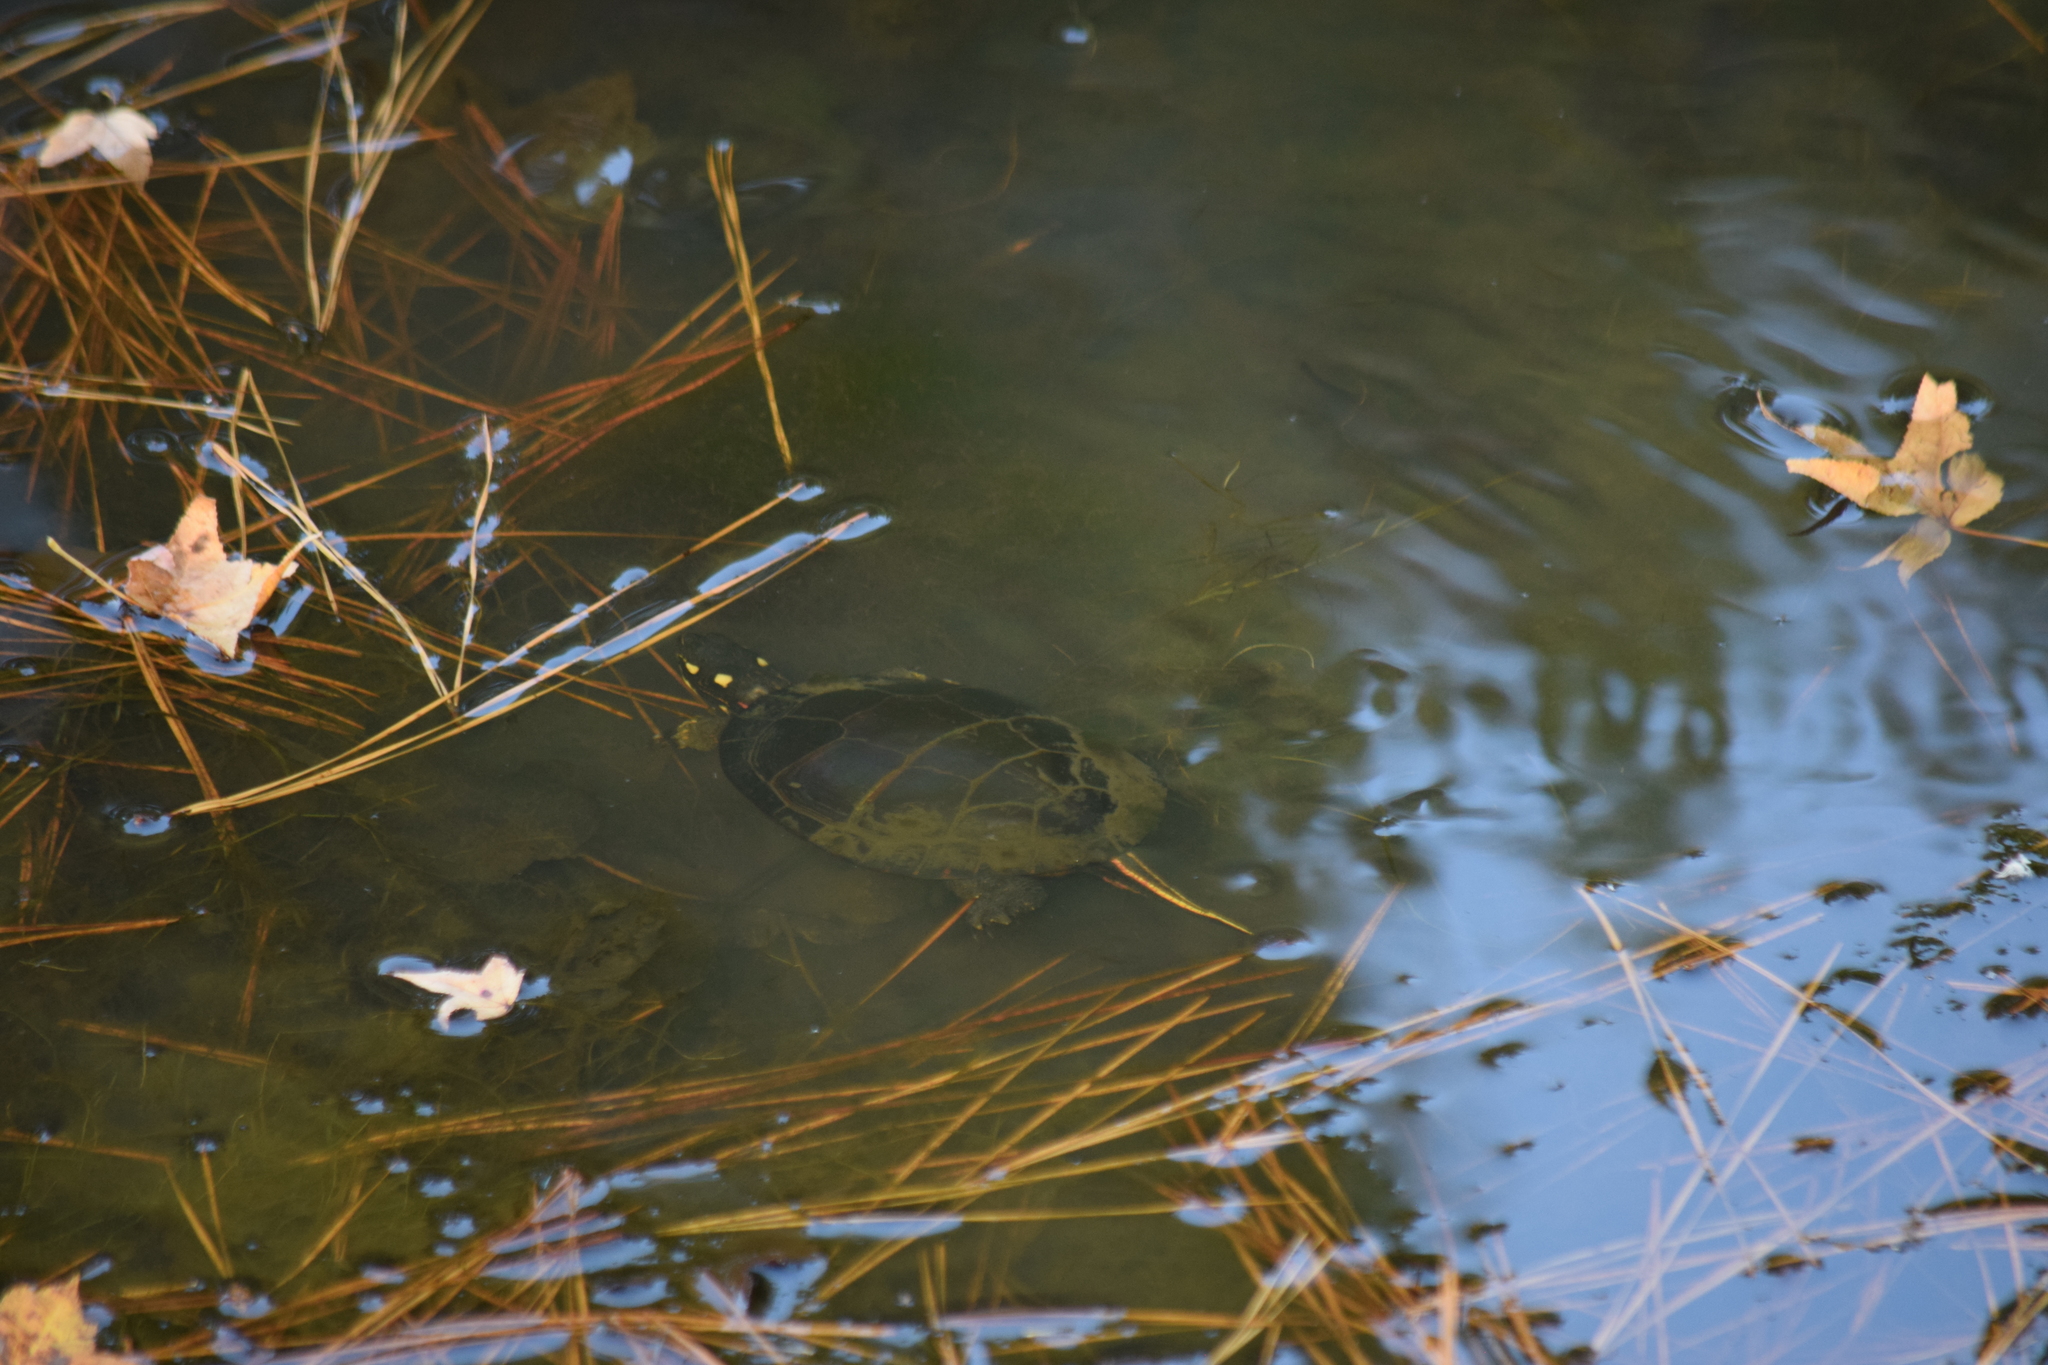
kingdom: Animalia
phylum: Chordata
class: Testudines
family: Emydidae
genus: Chrysemys
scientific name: Chrysemys picta
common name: Painted turtle
